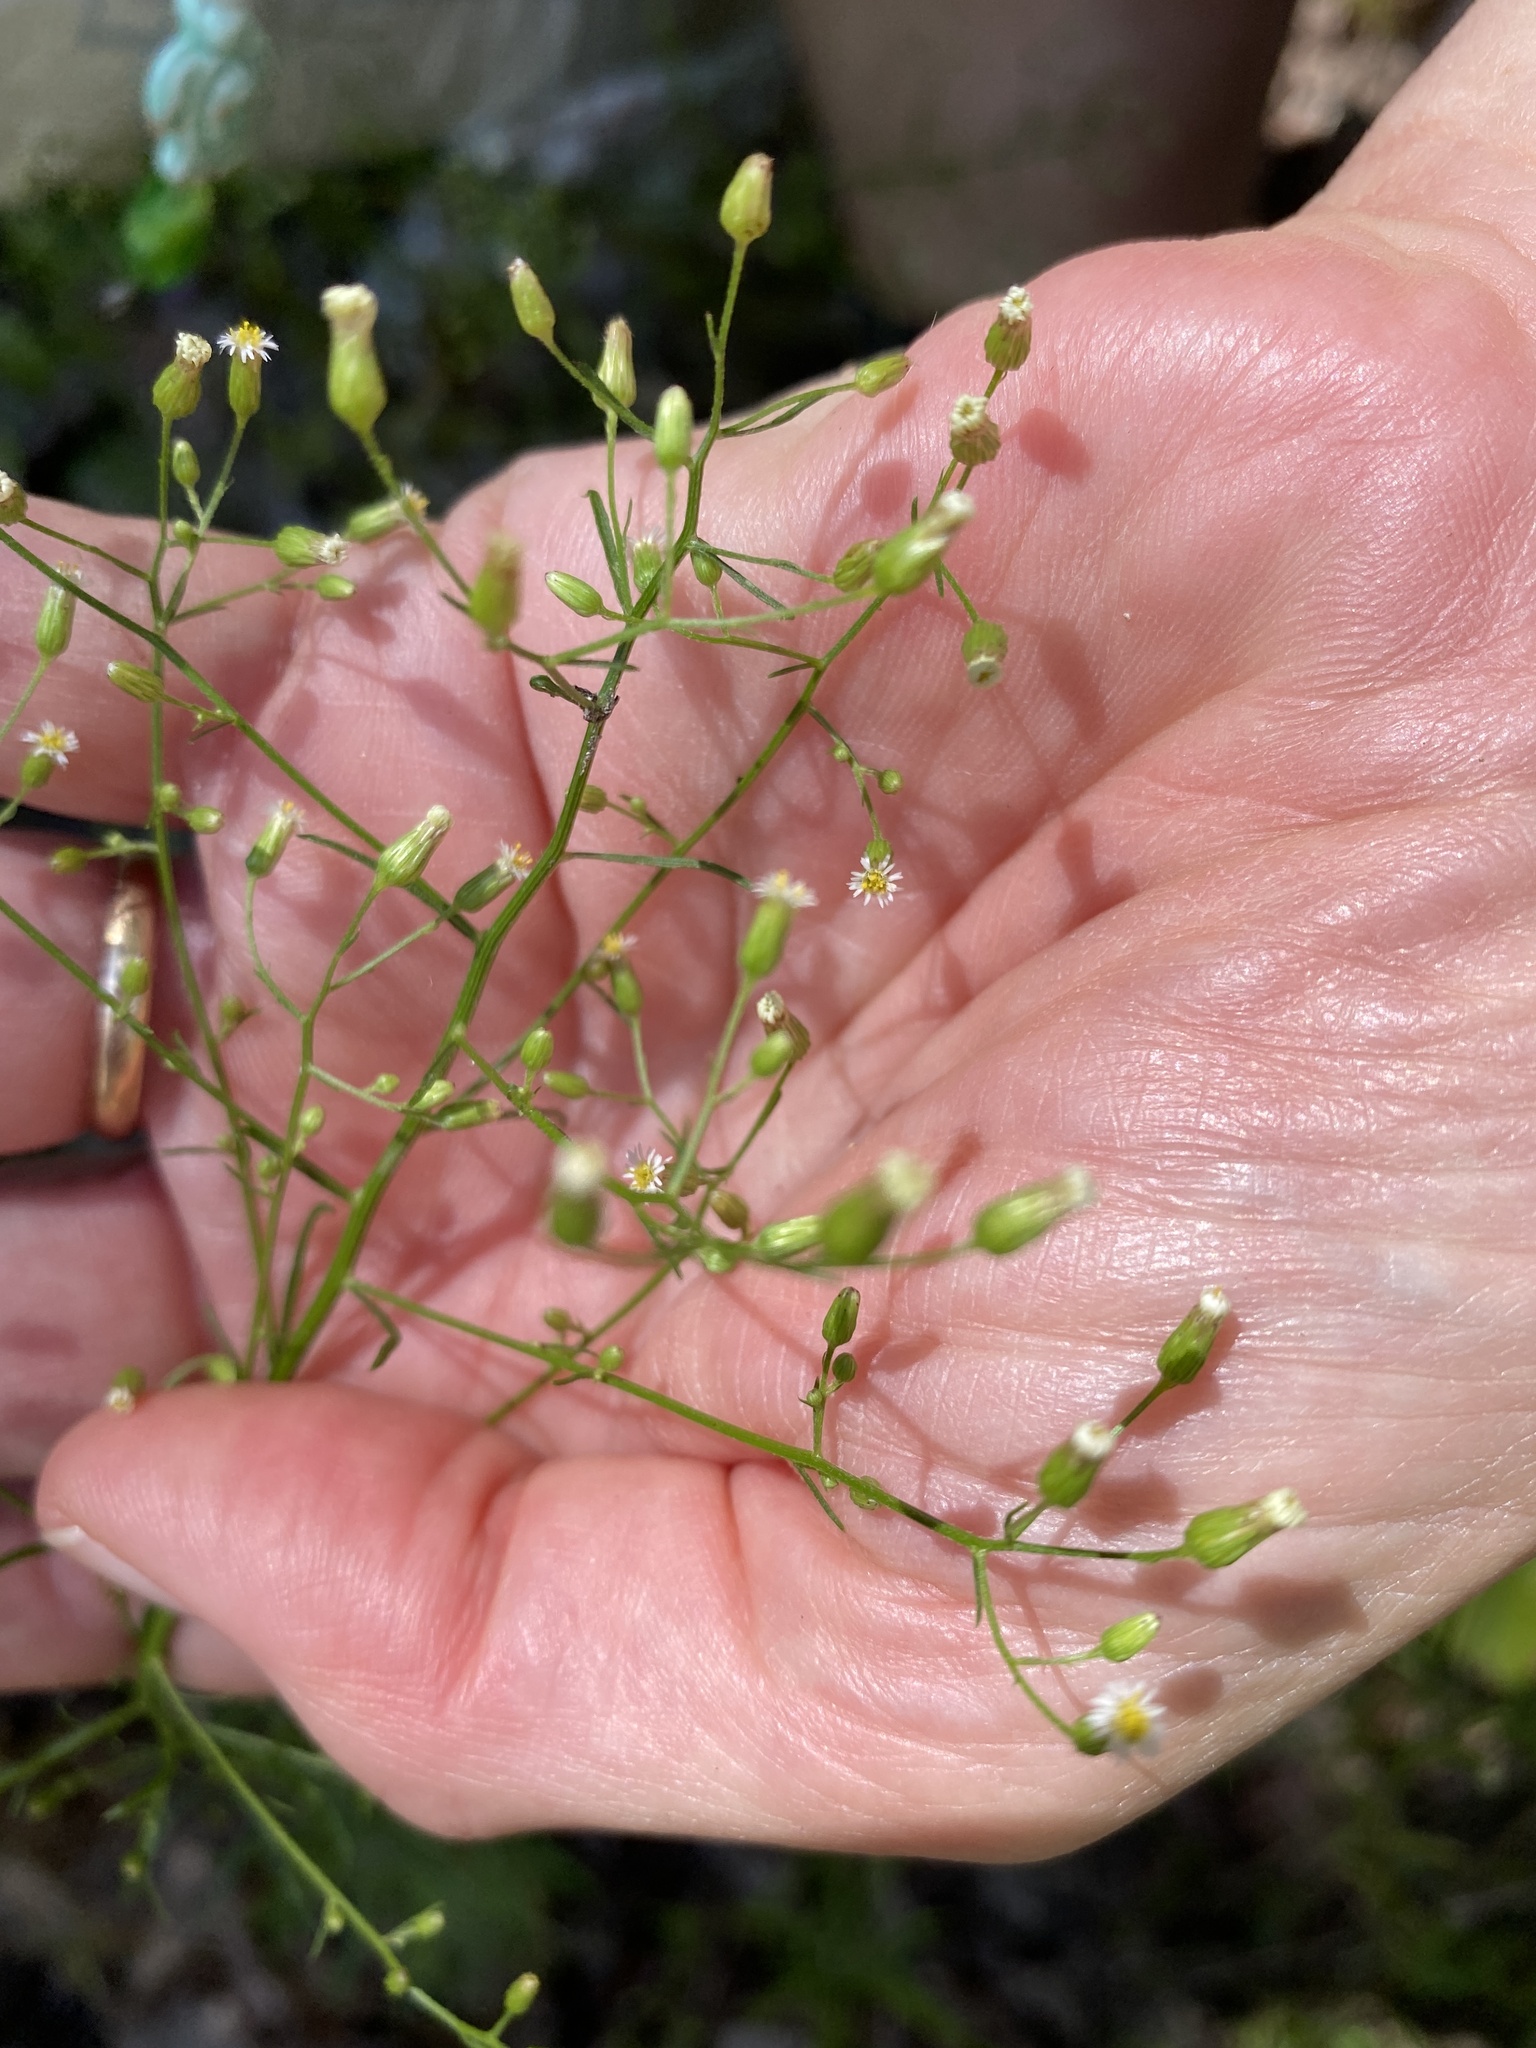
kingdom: Plantae
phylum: Tracheophyta
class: Magnoliopsida
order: Asterales
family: Asteraceae
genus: Erigeron
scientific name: Erigeron canadensis
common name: Canadian fleabane
